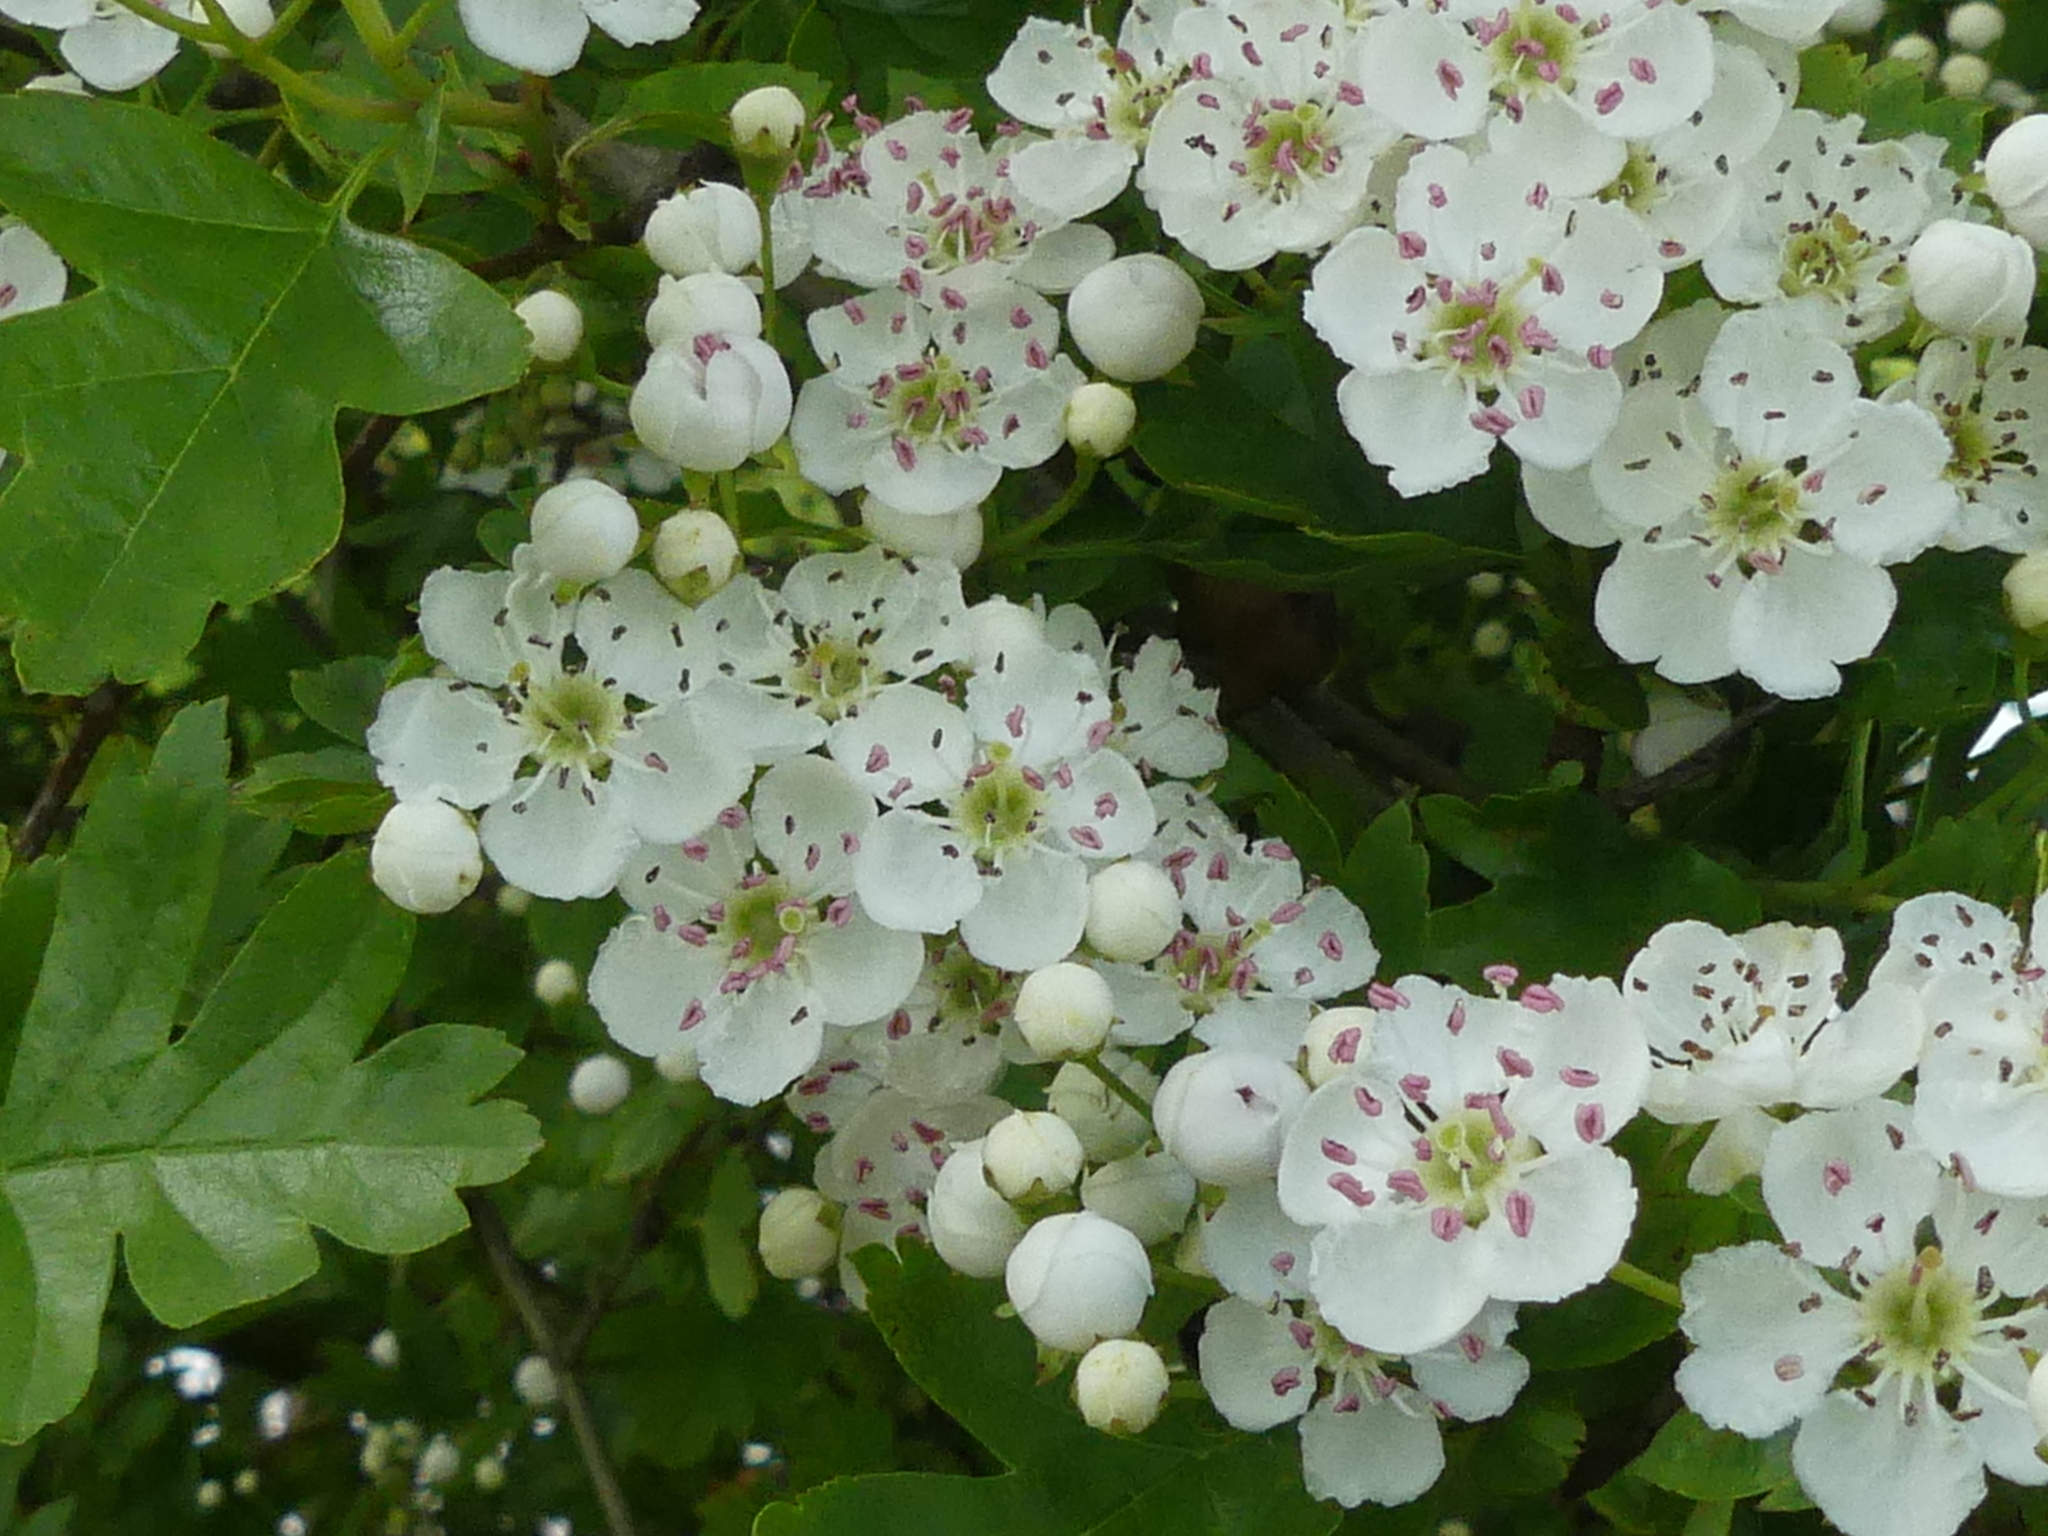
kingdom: Plantae
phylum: Tracheophyta
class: Magnoliopsida
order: Rosales
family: Rosaceae
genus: Crataegus
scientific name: Crataegus monogyna
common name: Hawthorn
